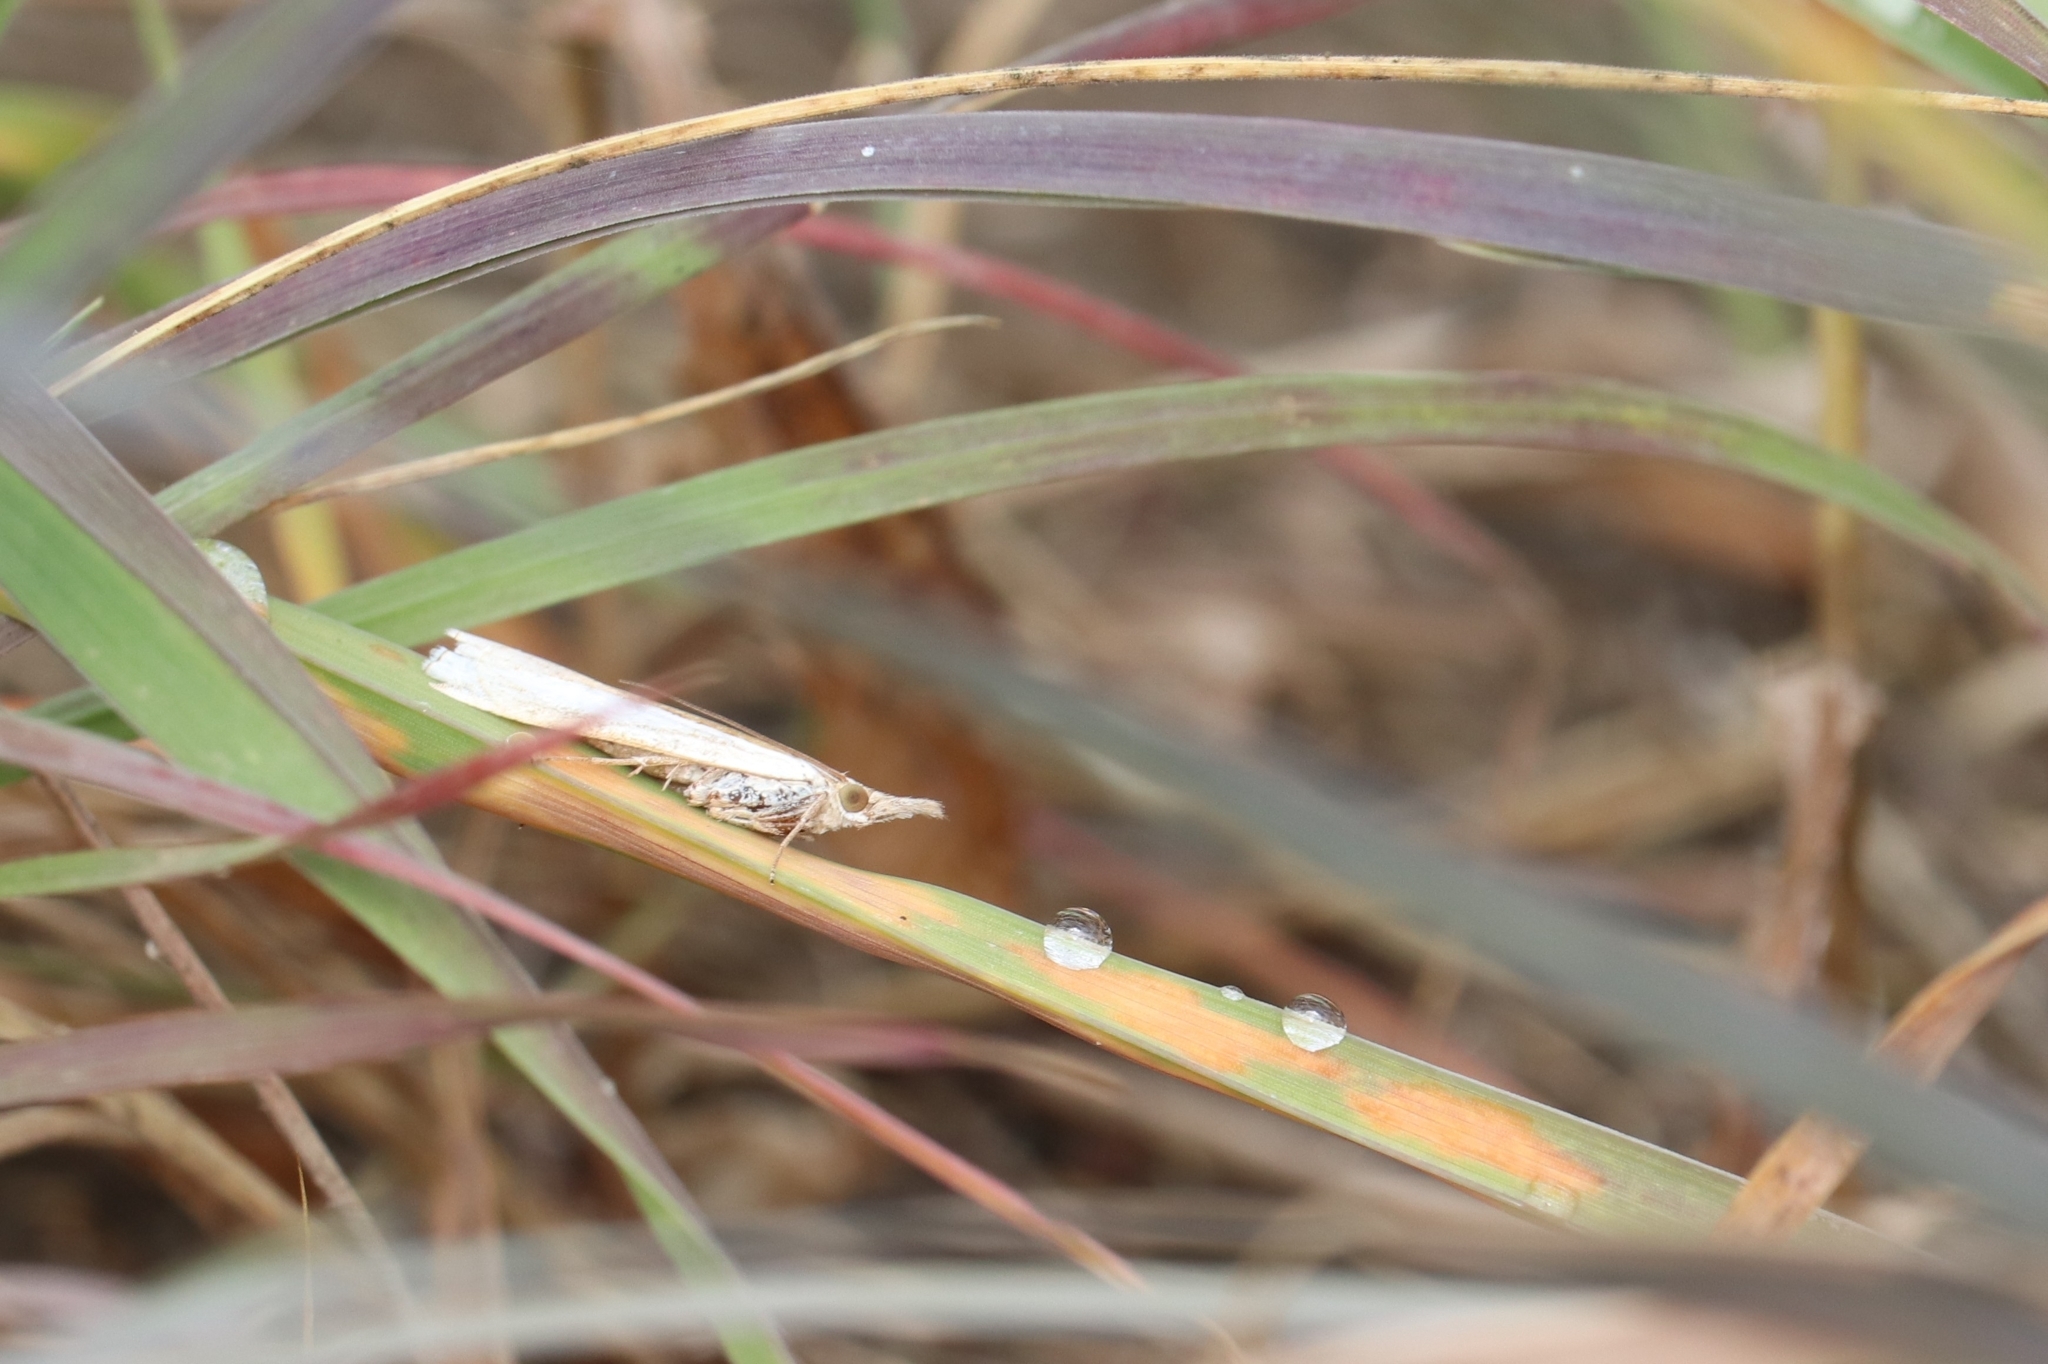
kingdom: Animalia
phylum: Arthropoda
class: Insecta
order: Lepidoptera
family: Crambidae
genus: Crambus
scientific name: Crambus
